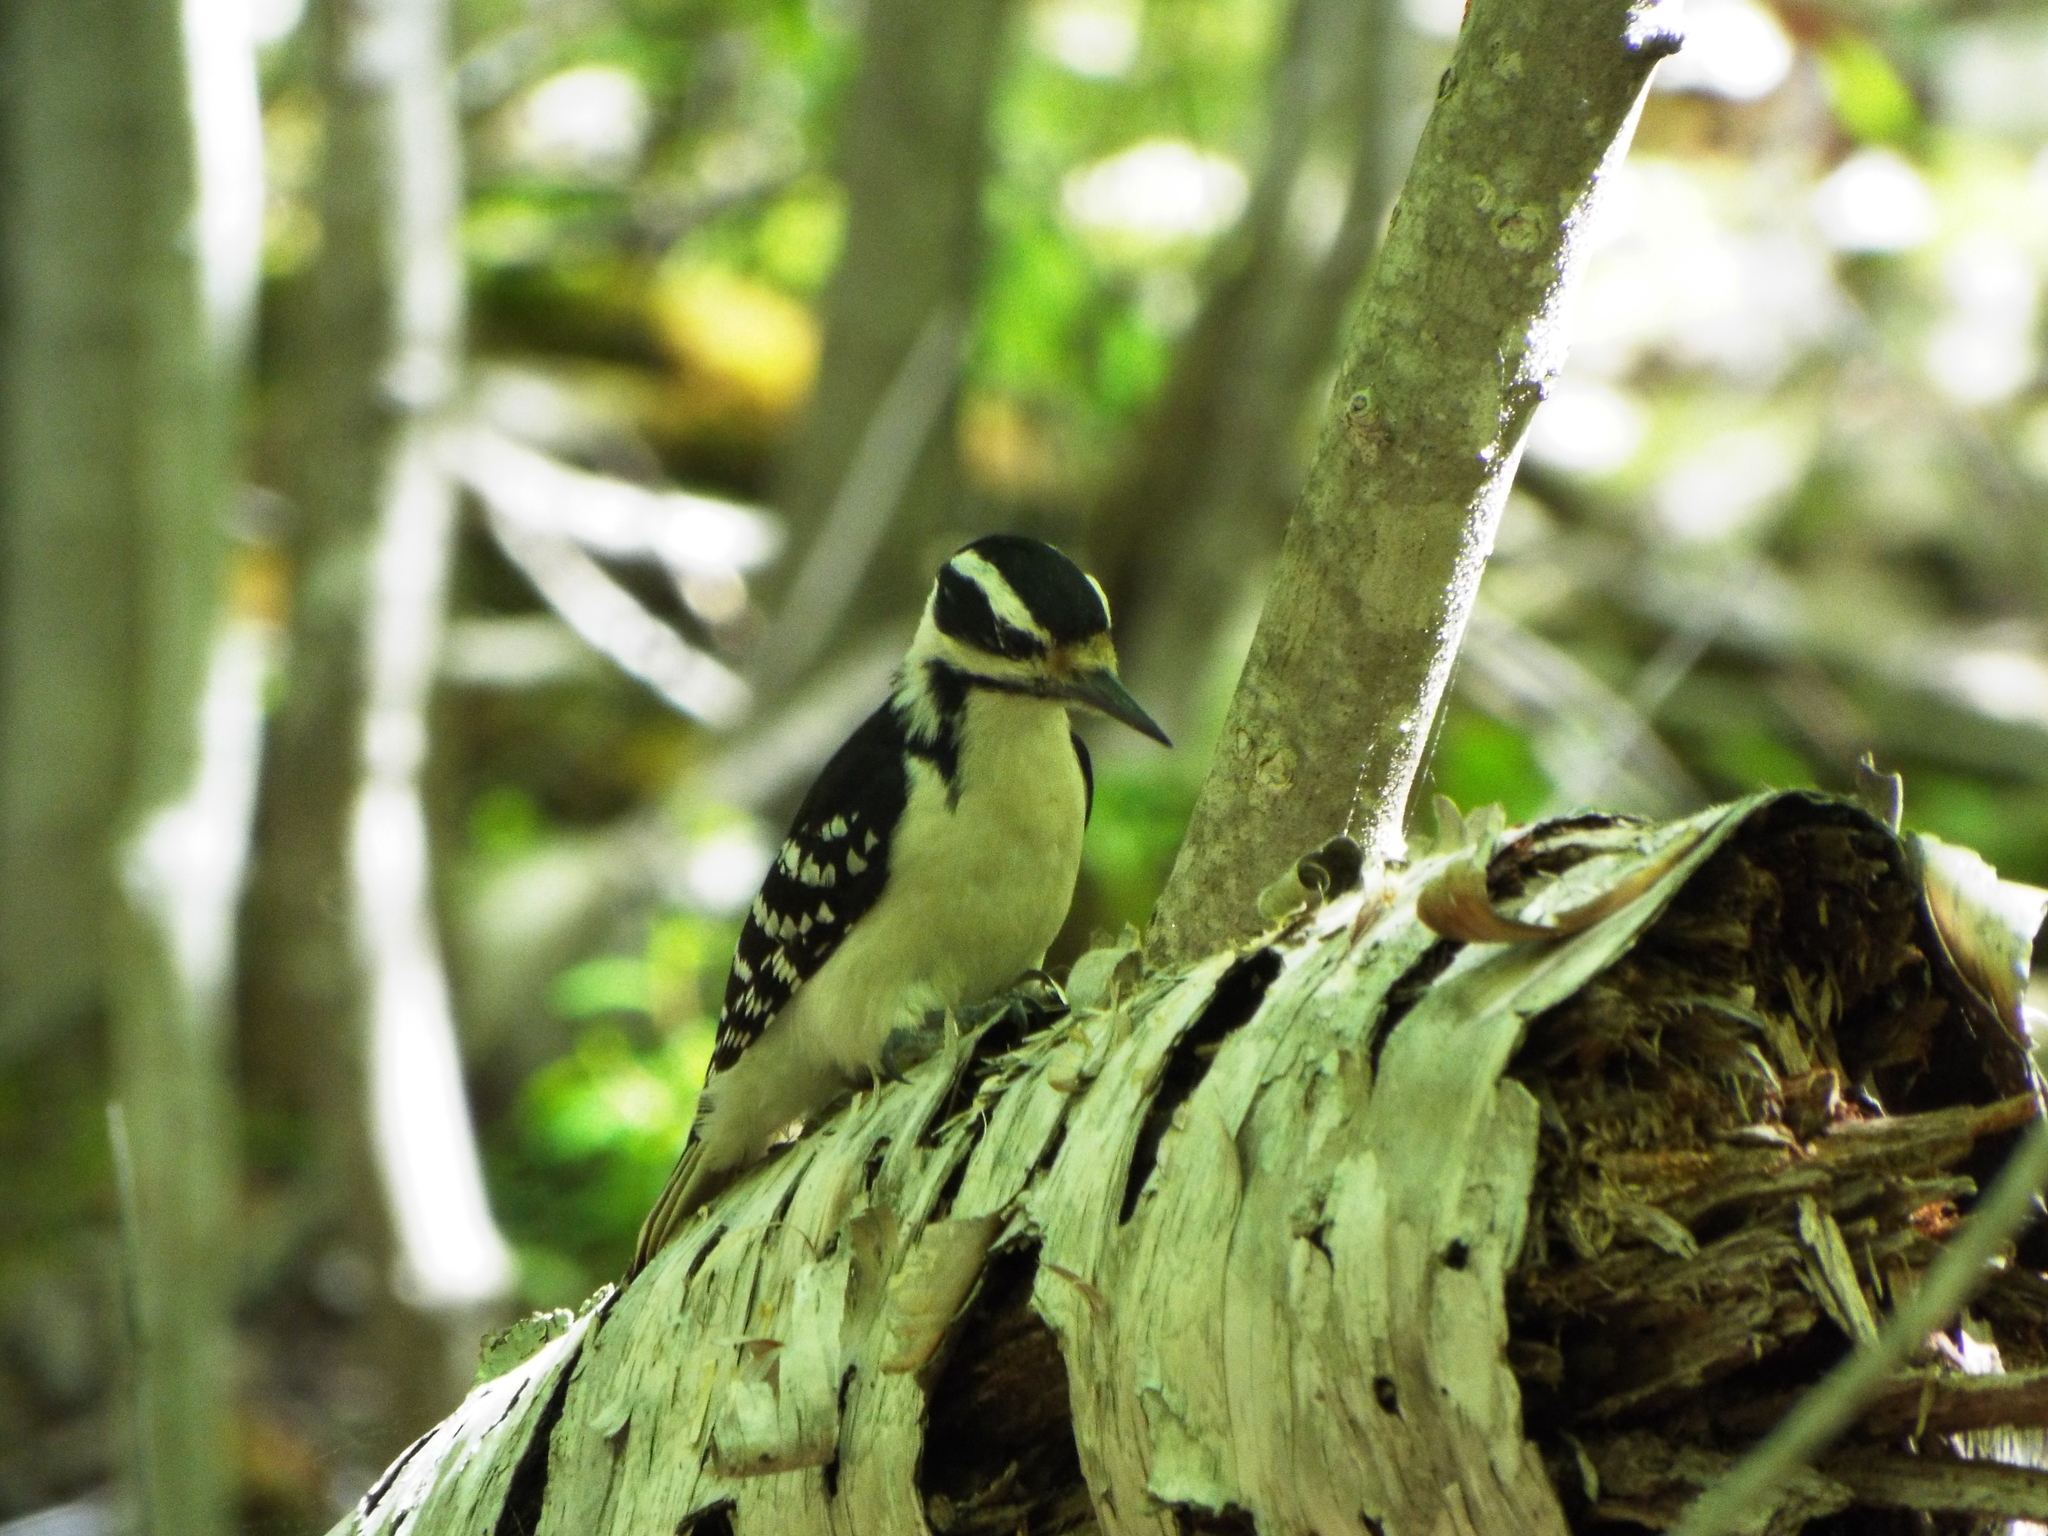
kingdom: Animalia
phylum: Chordata
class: Aves
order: Piciformes
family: Picidae
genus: Leuconotopicus
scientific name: Leuconotopicus villosus
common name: Hairy woodpecker
